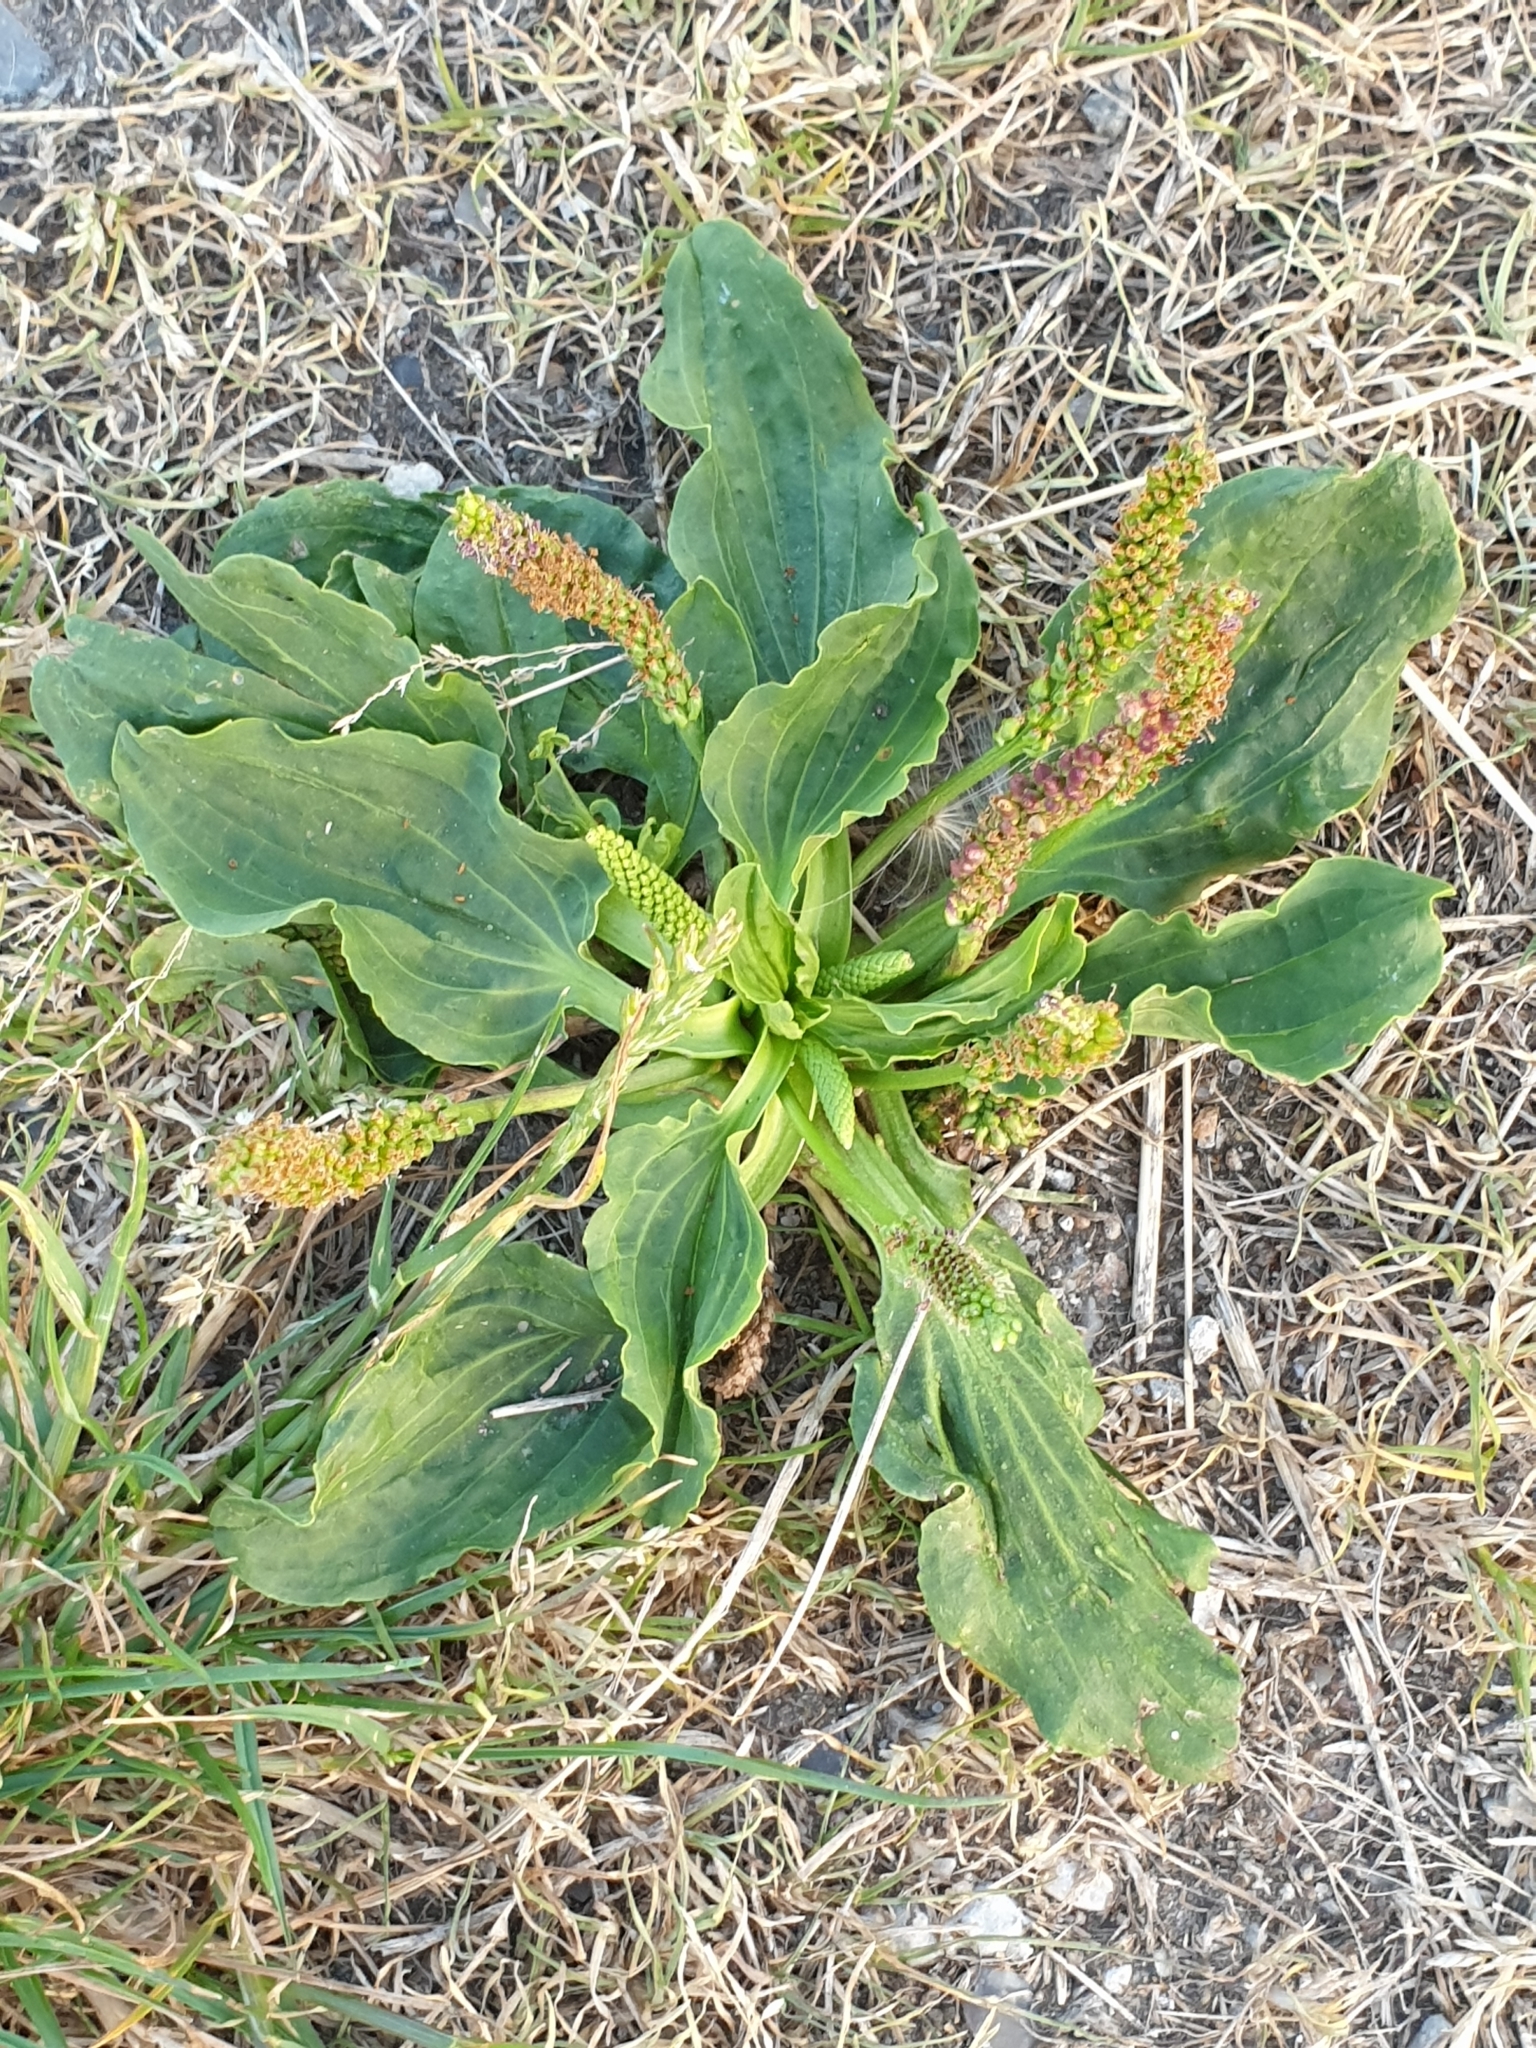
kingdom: Plantae
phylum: Tracheophyta
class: Magnoliopsida
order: Lamiales
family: Plantaginaceae
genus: Plantago
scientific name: Plantago major
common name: Common plantain
